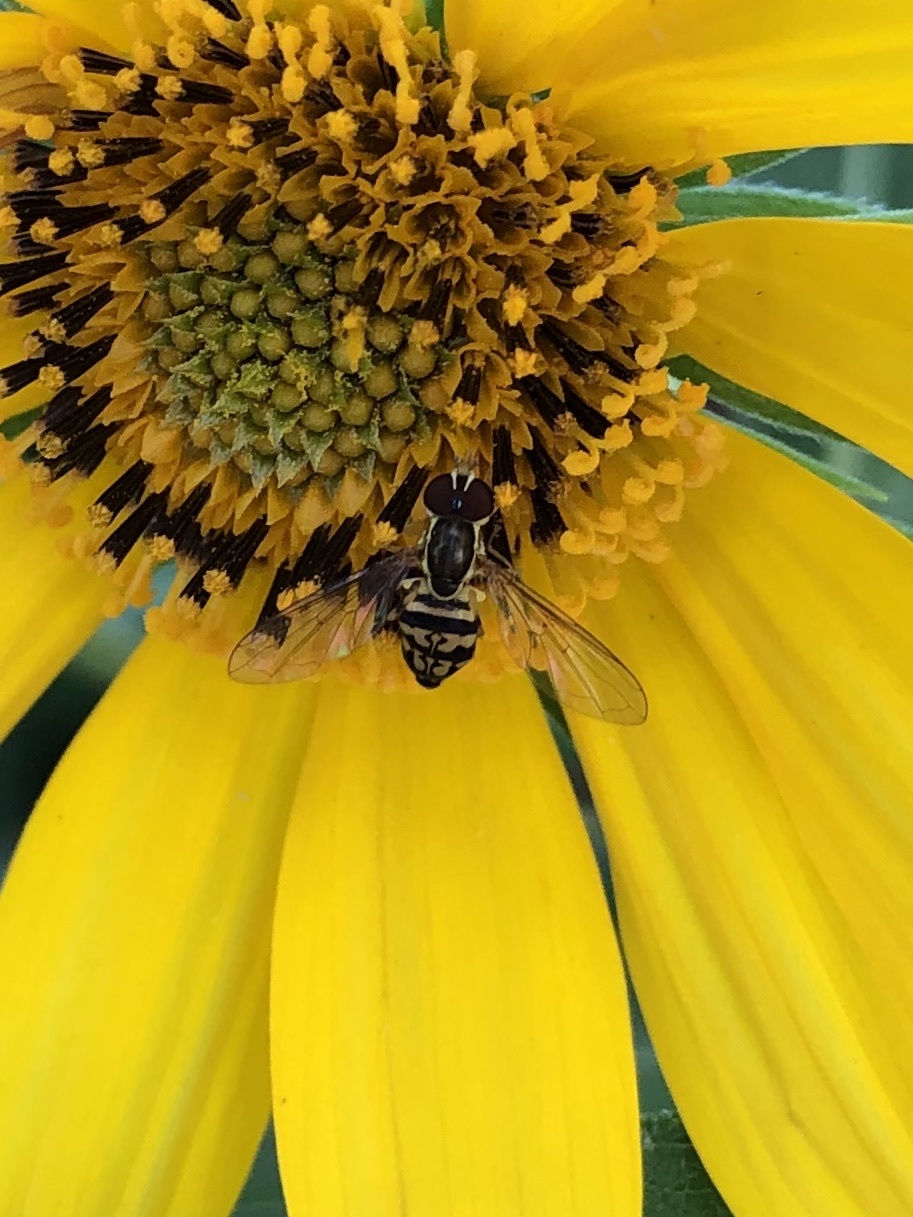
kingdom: Animalia
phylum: Arthropoda
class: Insecta
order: Diptera
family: Syrphidae
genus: Toxomerus
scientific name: Toxomerus geminatus
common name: Eastern calligrapher
